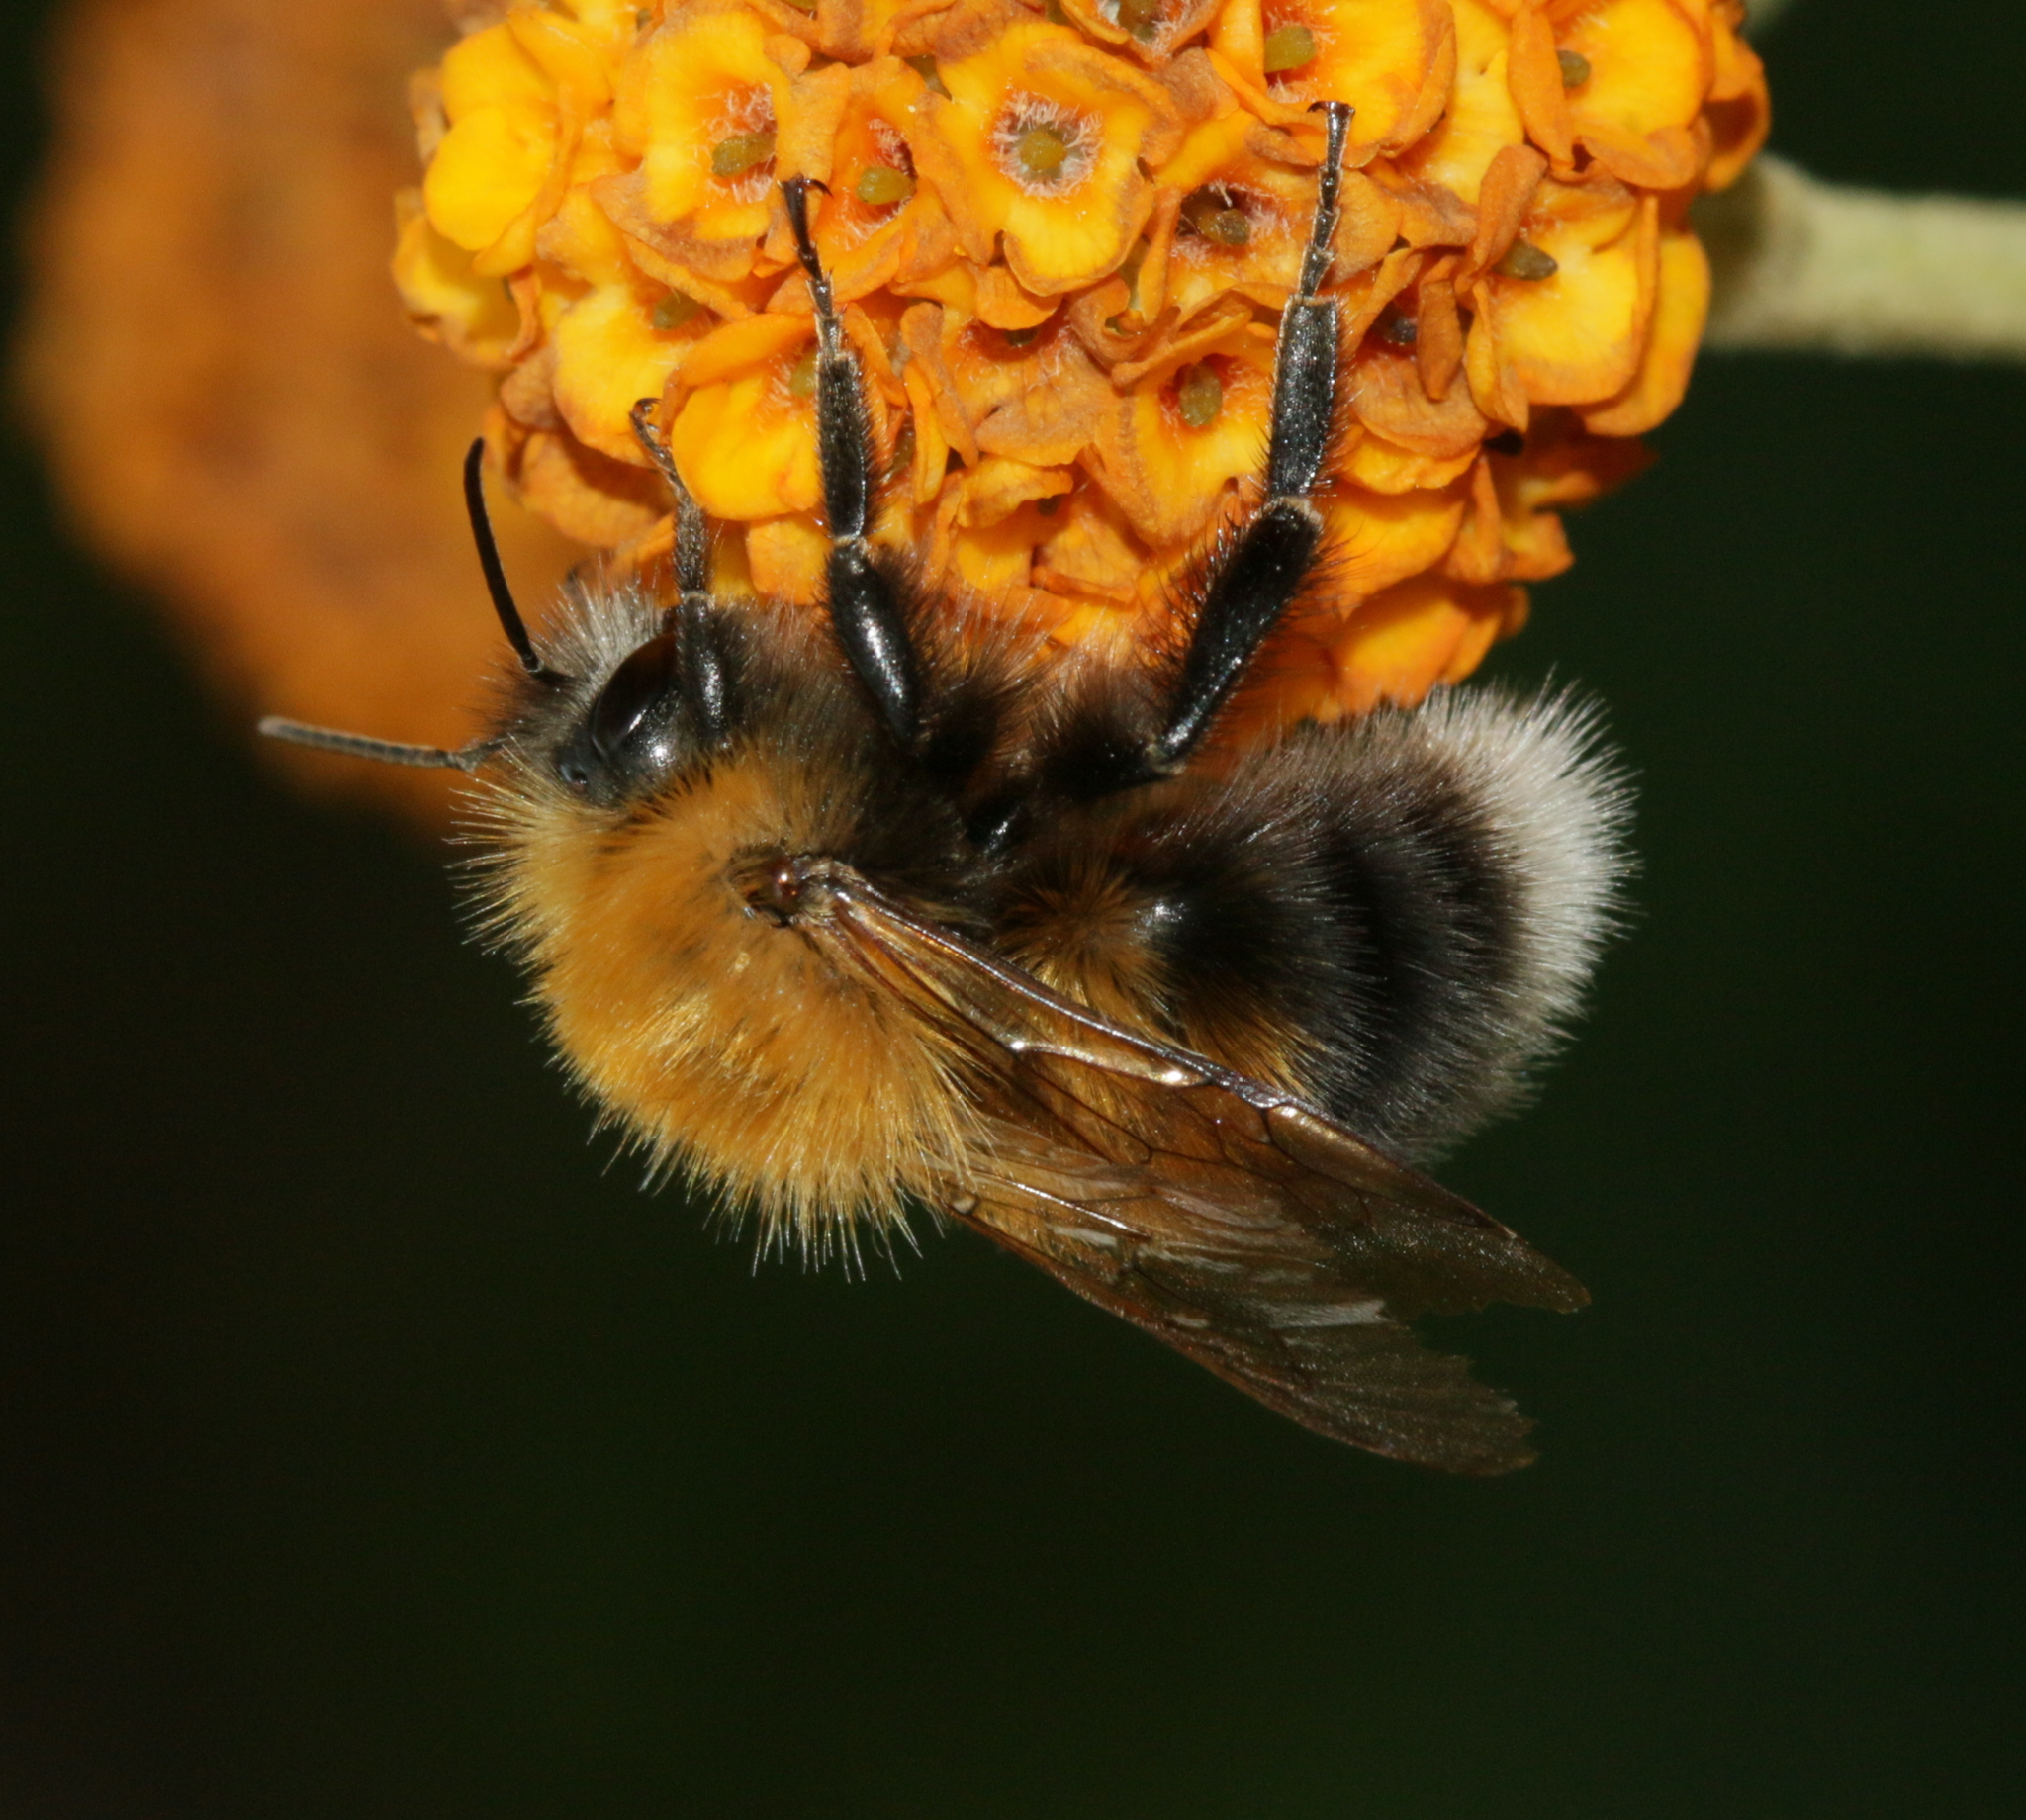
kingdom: Animalia
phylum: Arthropoda
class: Insecta
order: Hymenoptera
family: Apidae
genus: Bombus
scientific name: Bombus hypnorum
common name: New garden bumblebee
